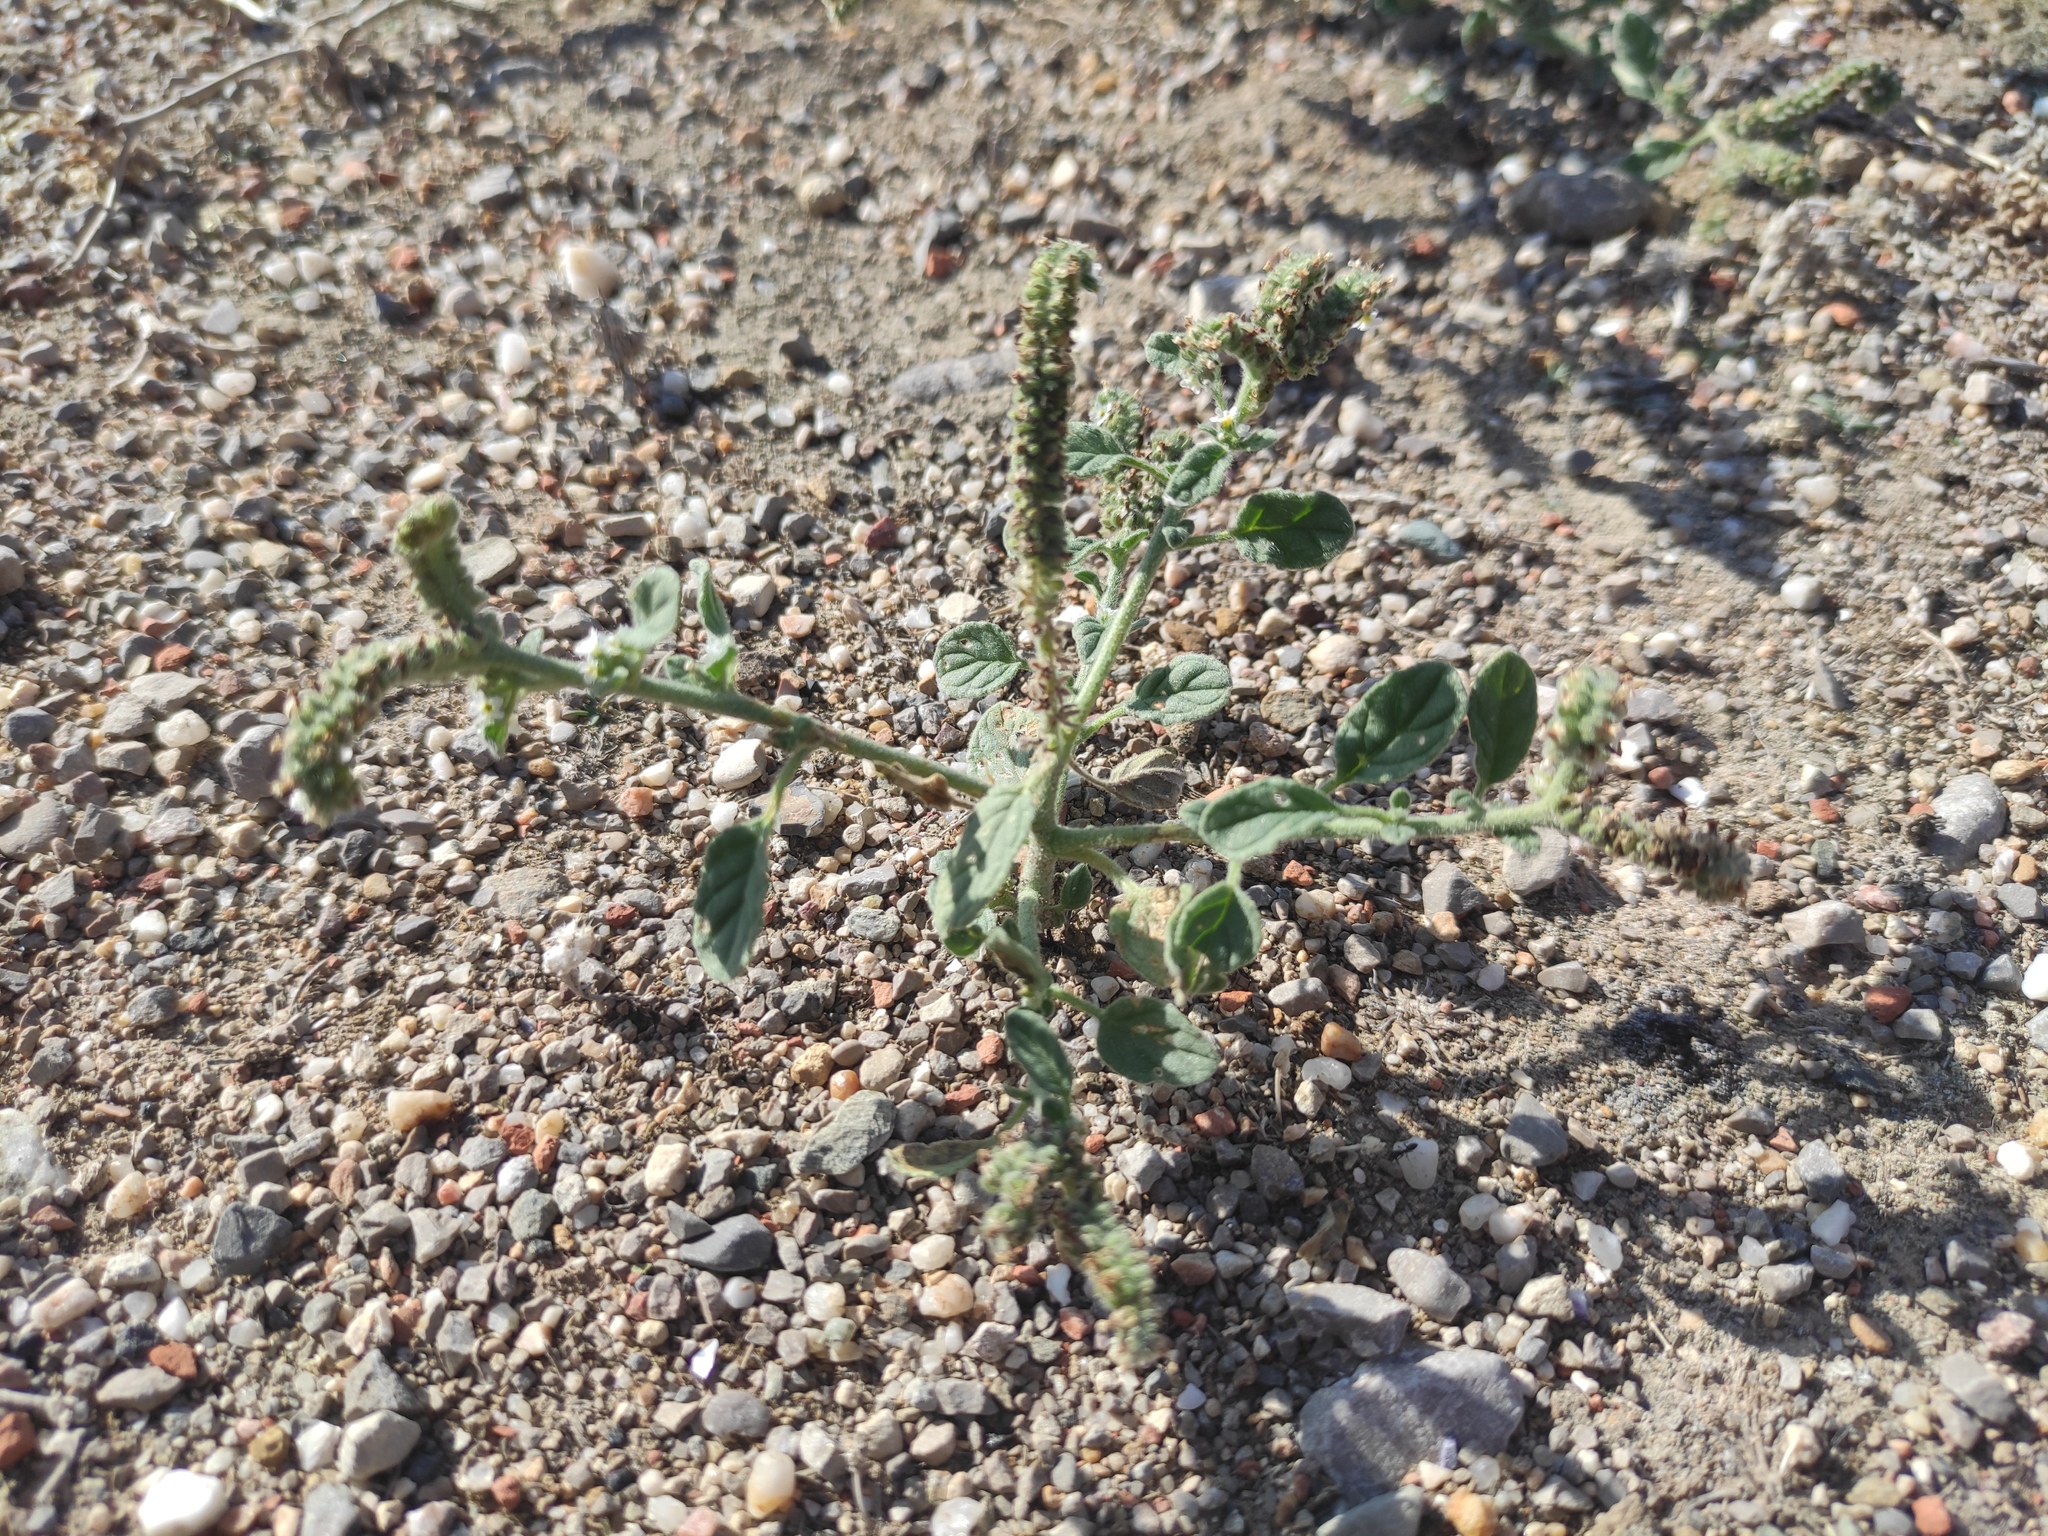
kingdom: Plantae
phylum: Tracheophyta
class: Magnoliopsida
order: Boraginales
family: Heliotropiaceae
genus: Heliotropium
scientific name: Heliotropium europaeum
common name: European heliotrope
